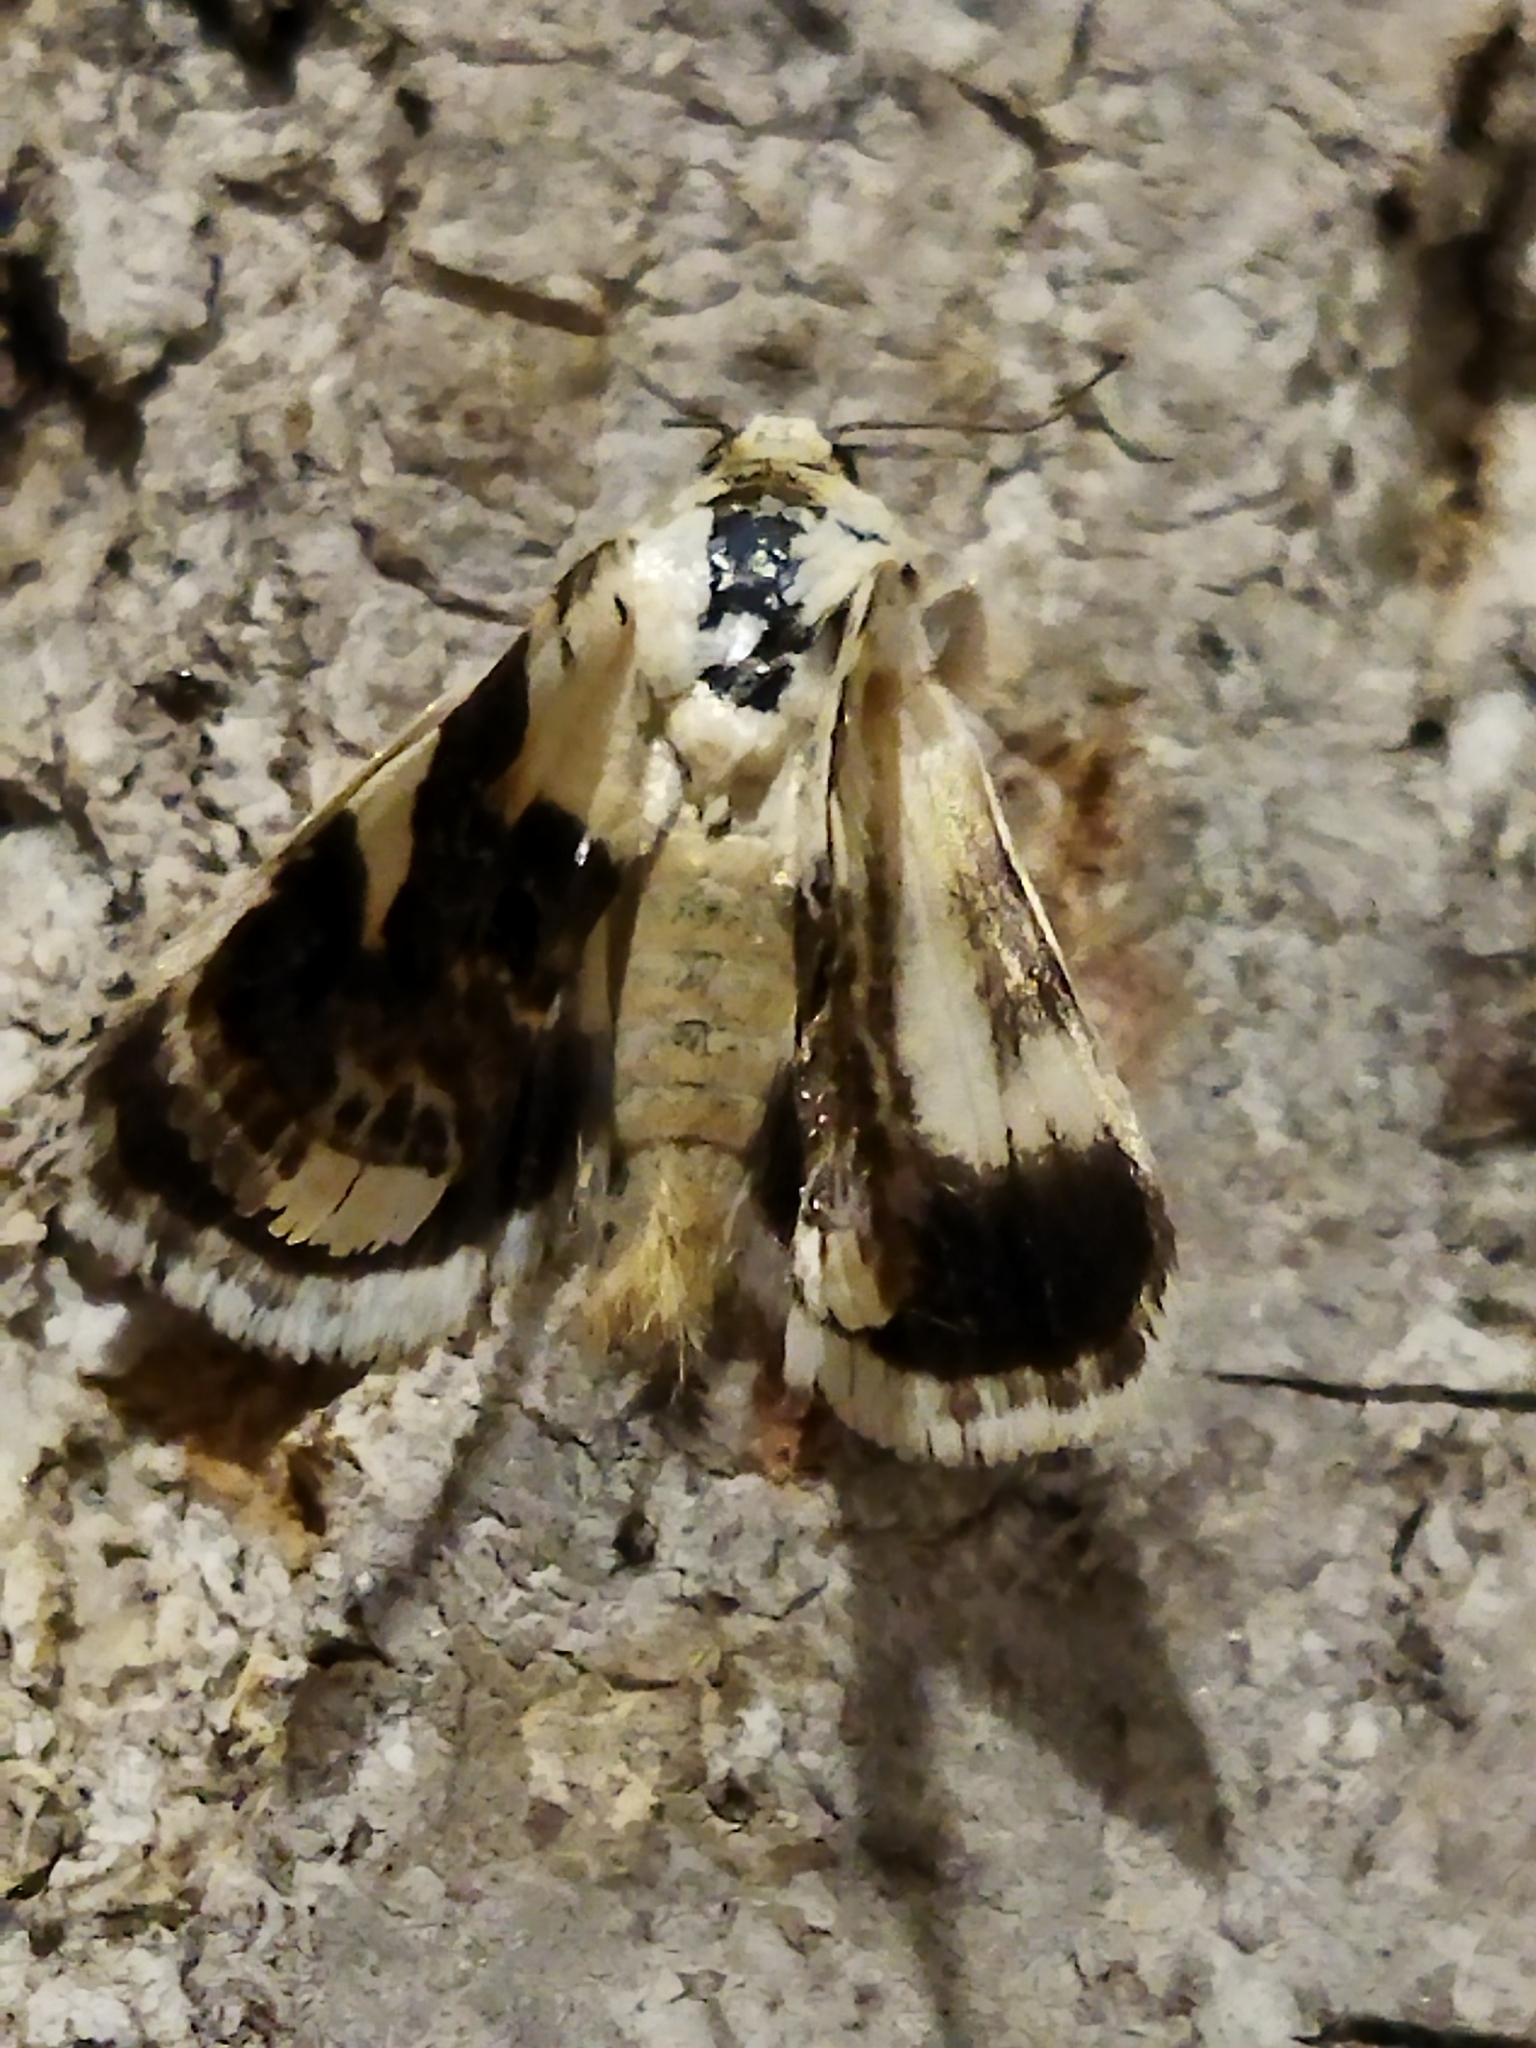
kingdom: Animalia
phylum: Arthropoda
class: Insecta
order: Lepidoptera
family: Noctuidae
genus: Acontia
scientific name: Acontia lucida
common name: Pale shoulder
